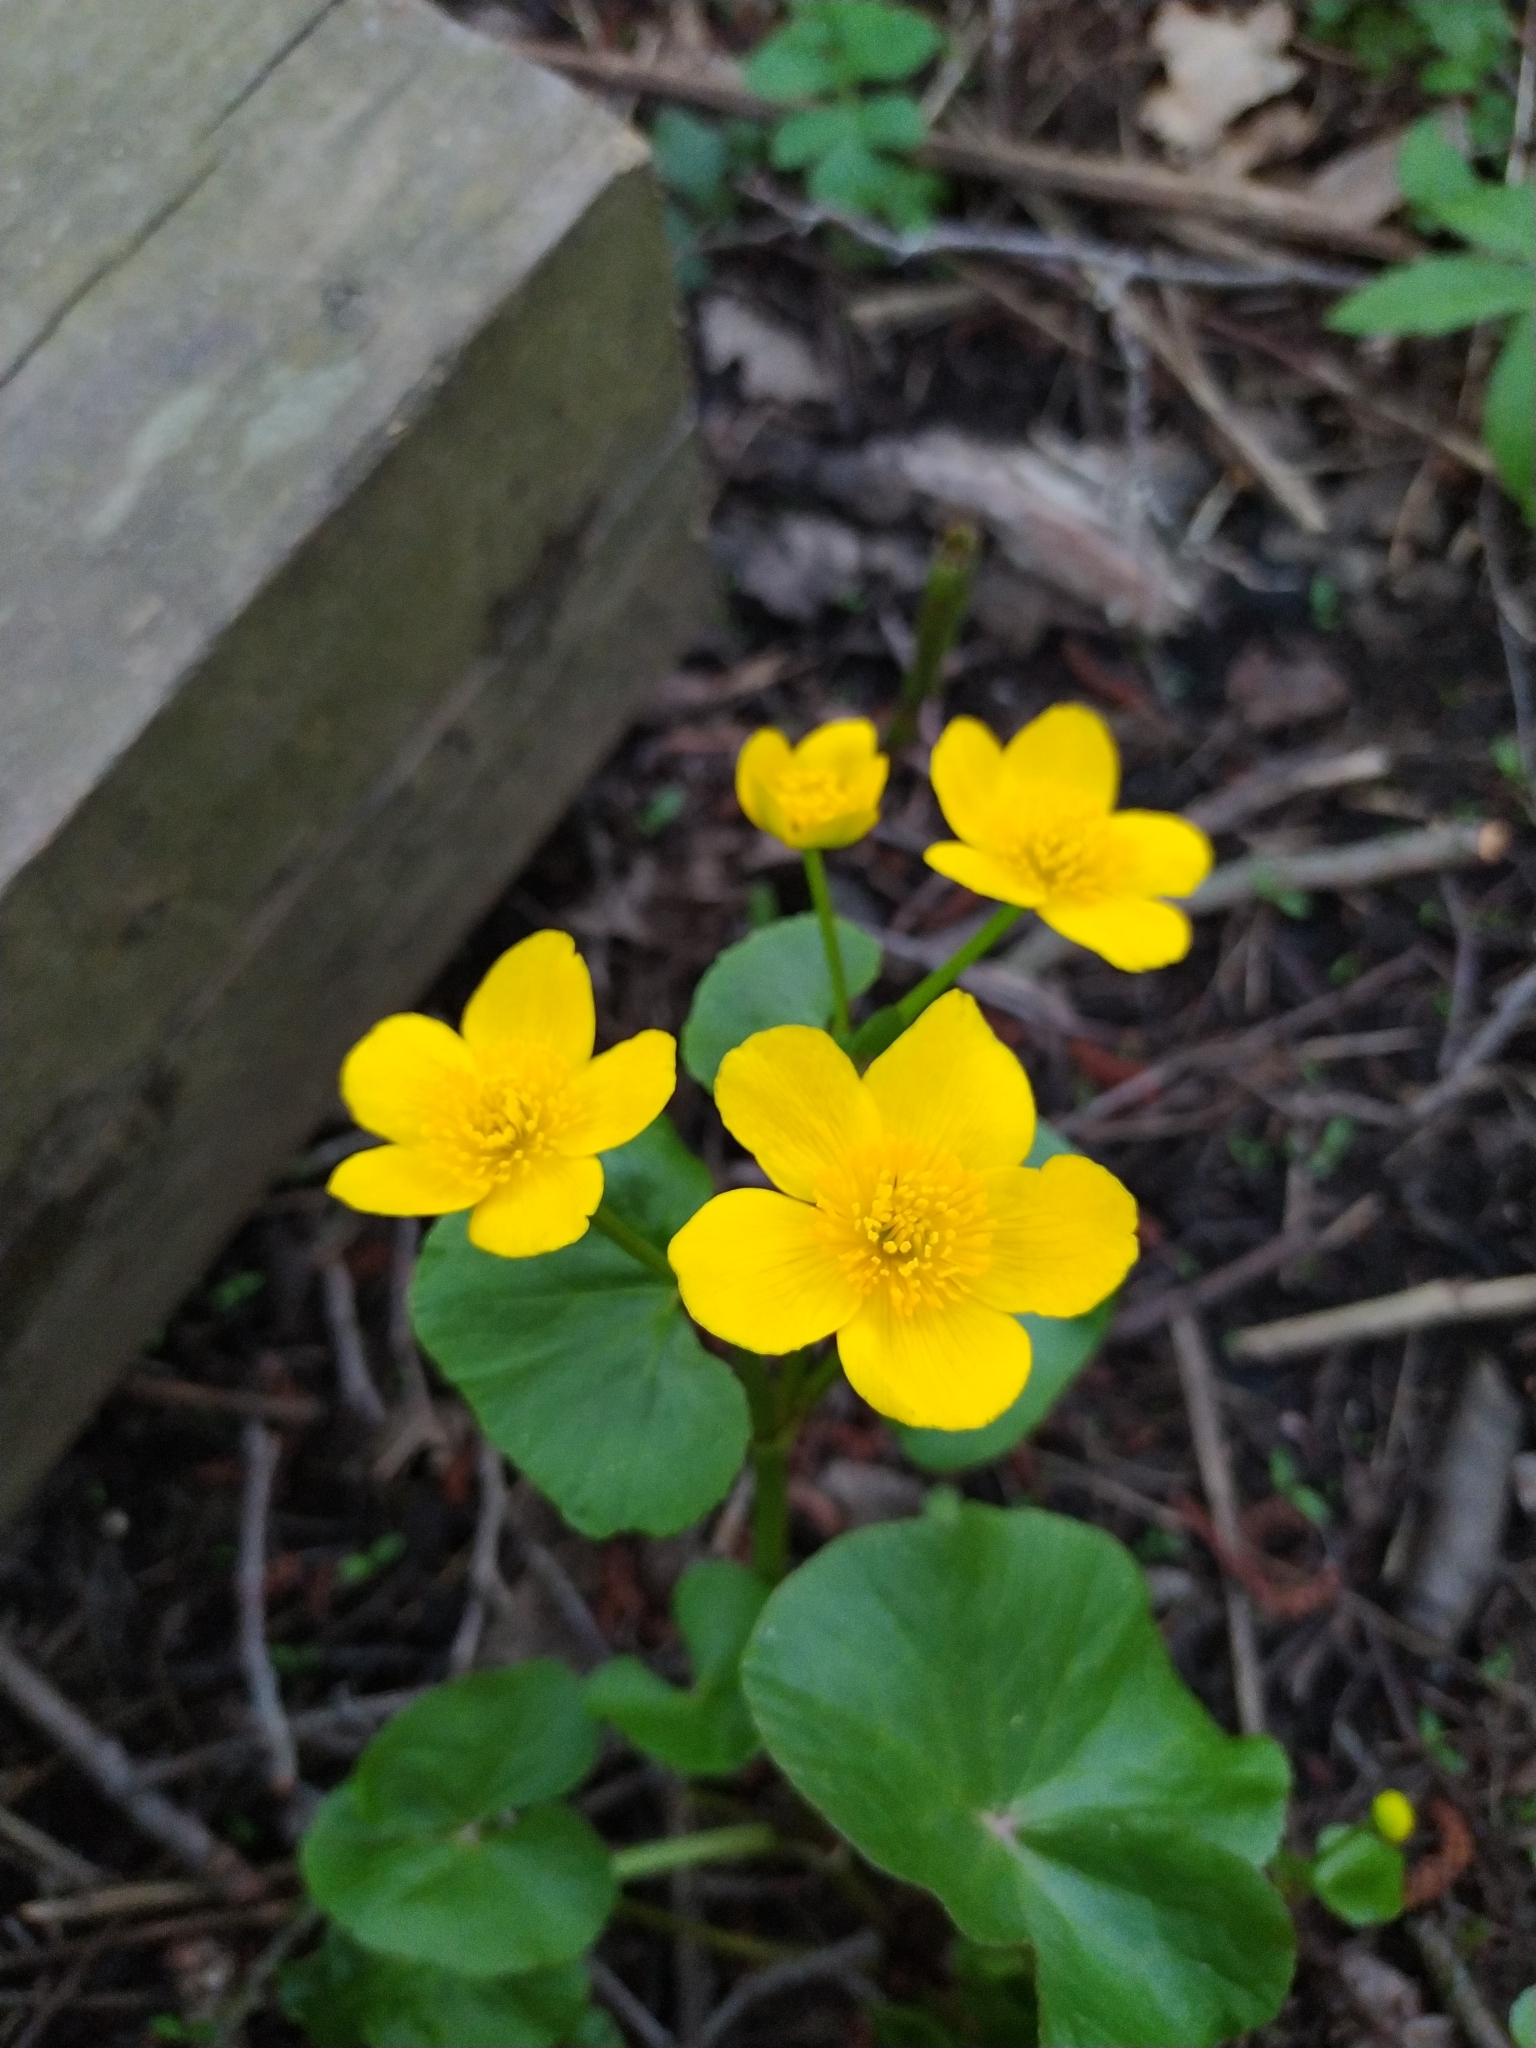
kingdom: Plantae
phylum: Tracheophyta
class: Magnoliopsida
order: Ranunculales
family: Ranunculaceae
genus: Caltha
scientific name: Caltha palustris
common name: Marsh marigold
